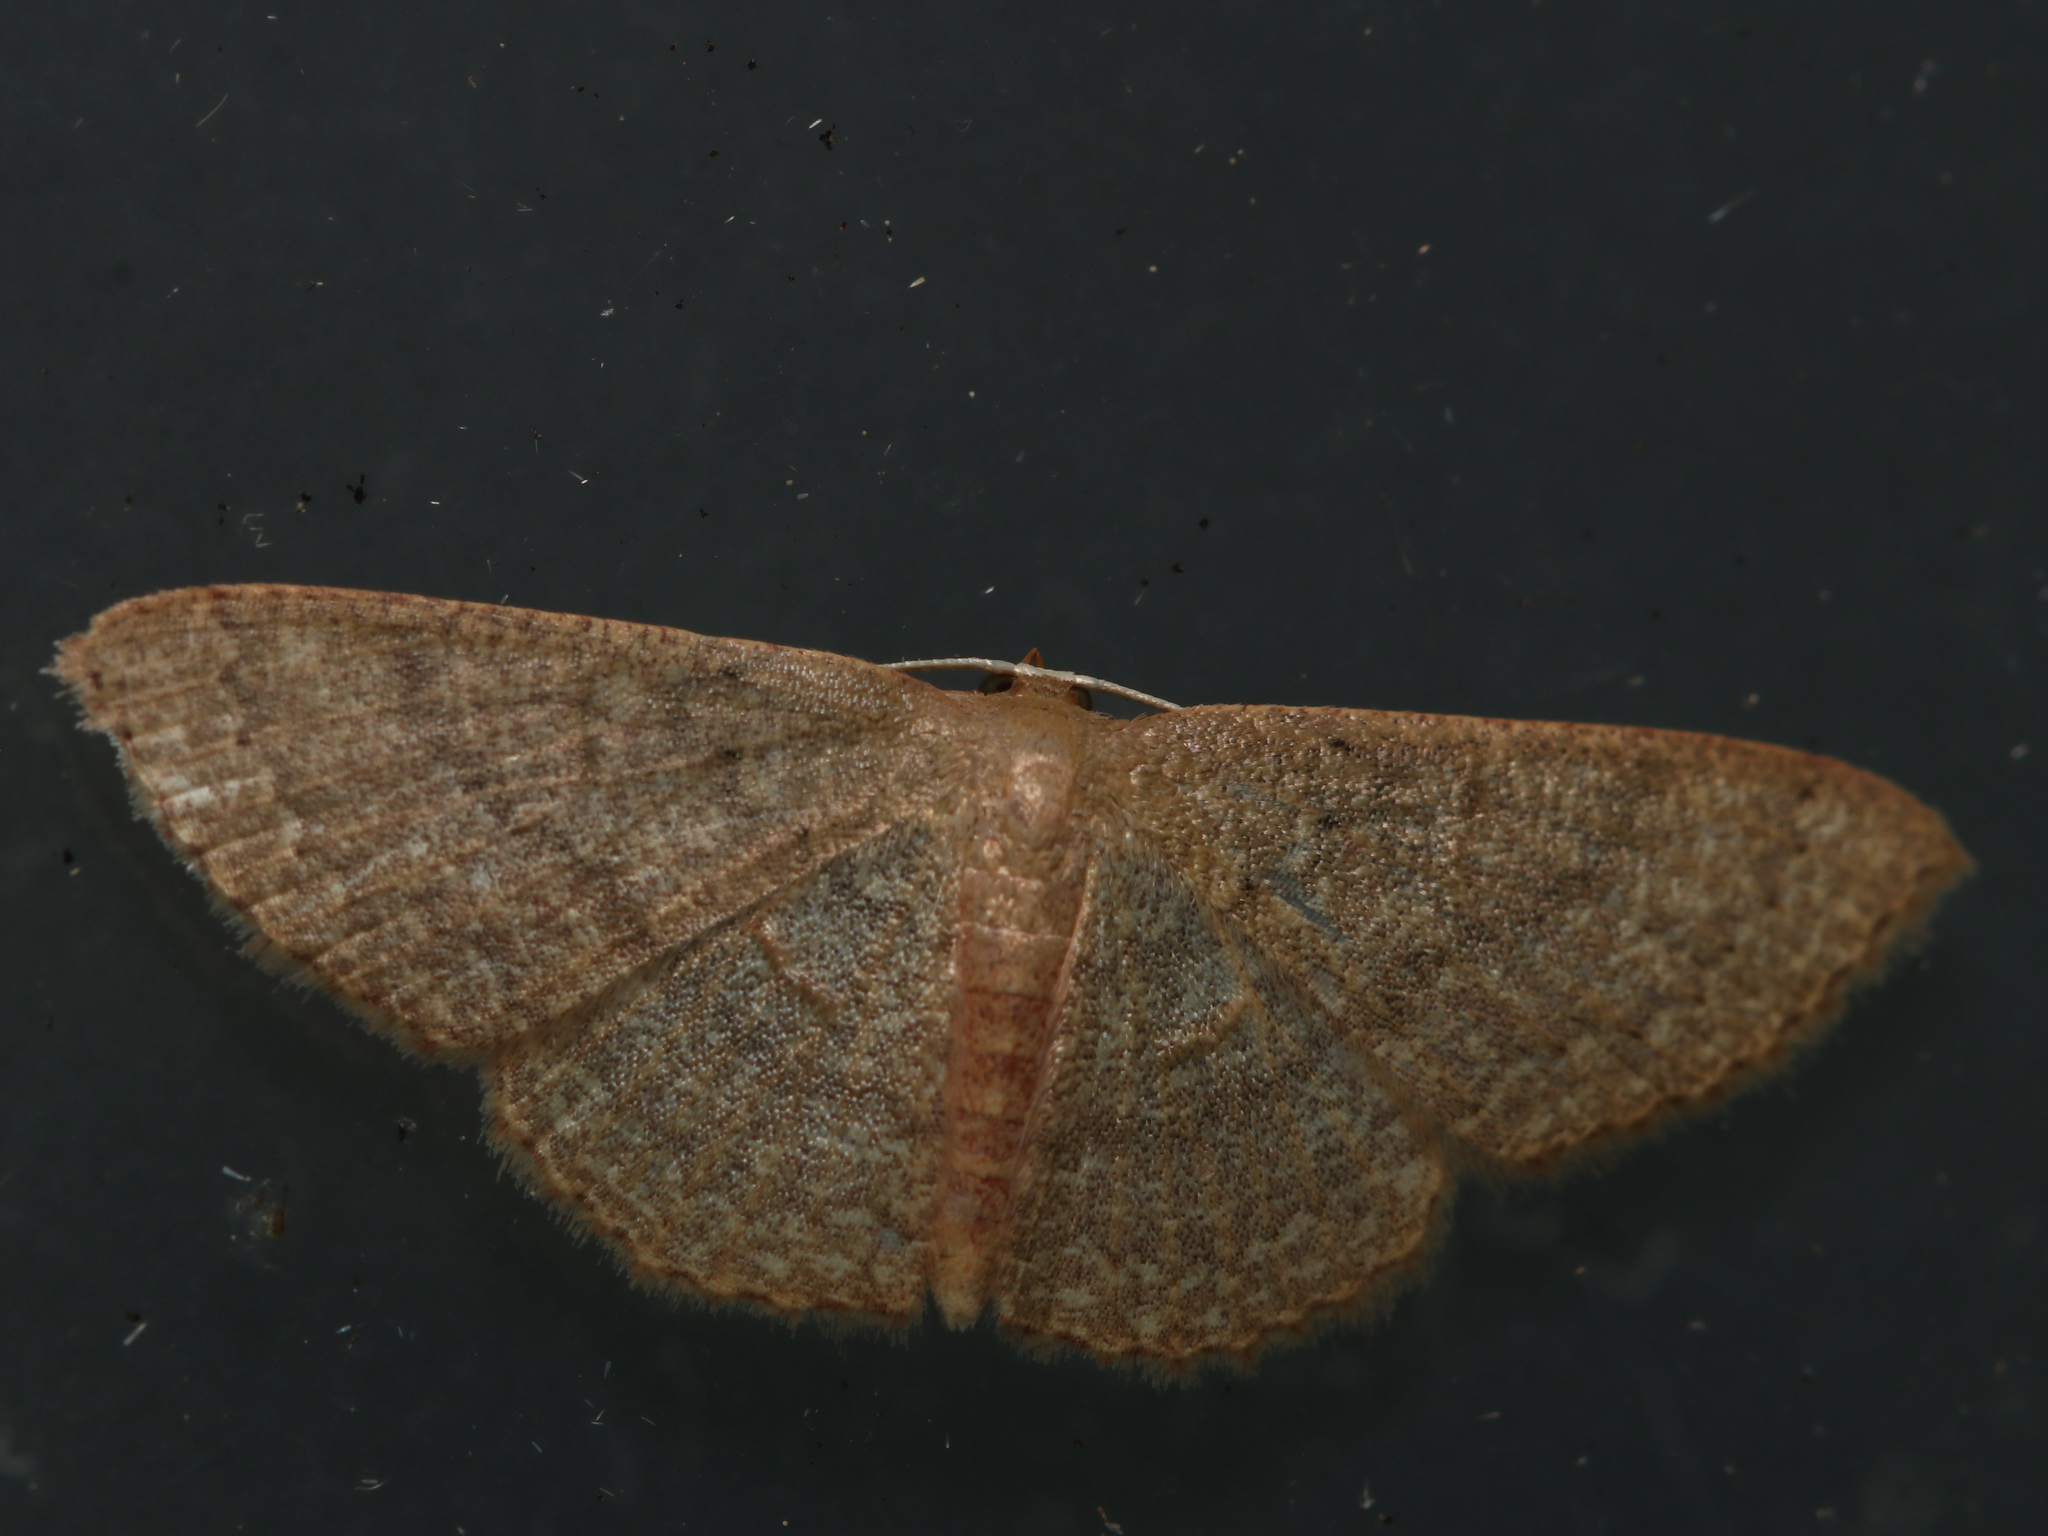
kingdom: Animalia
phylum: Arthropoda
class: Insecta
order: Lepidoptera
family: Geometridae
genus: Pleuroprucha
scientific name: Pleuroprucha insulsaria
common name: Common tan wave
